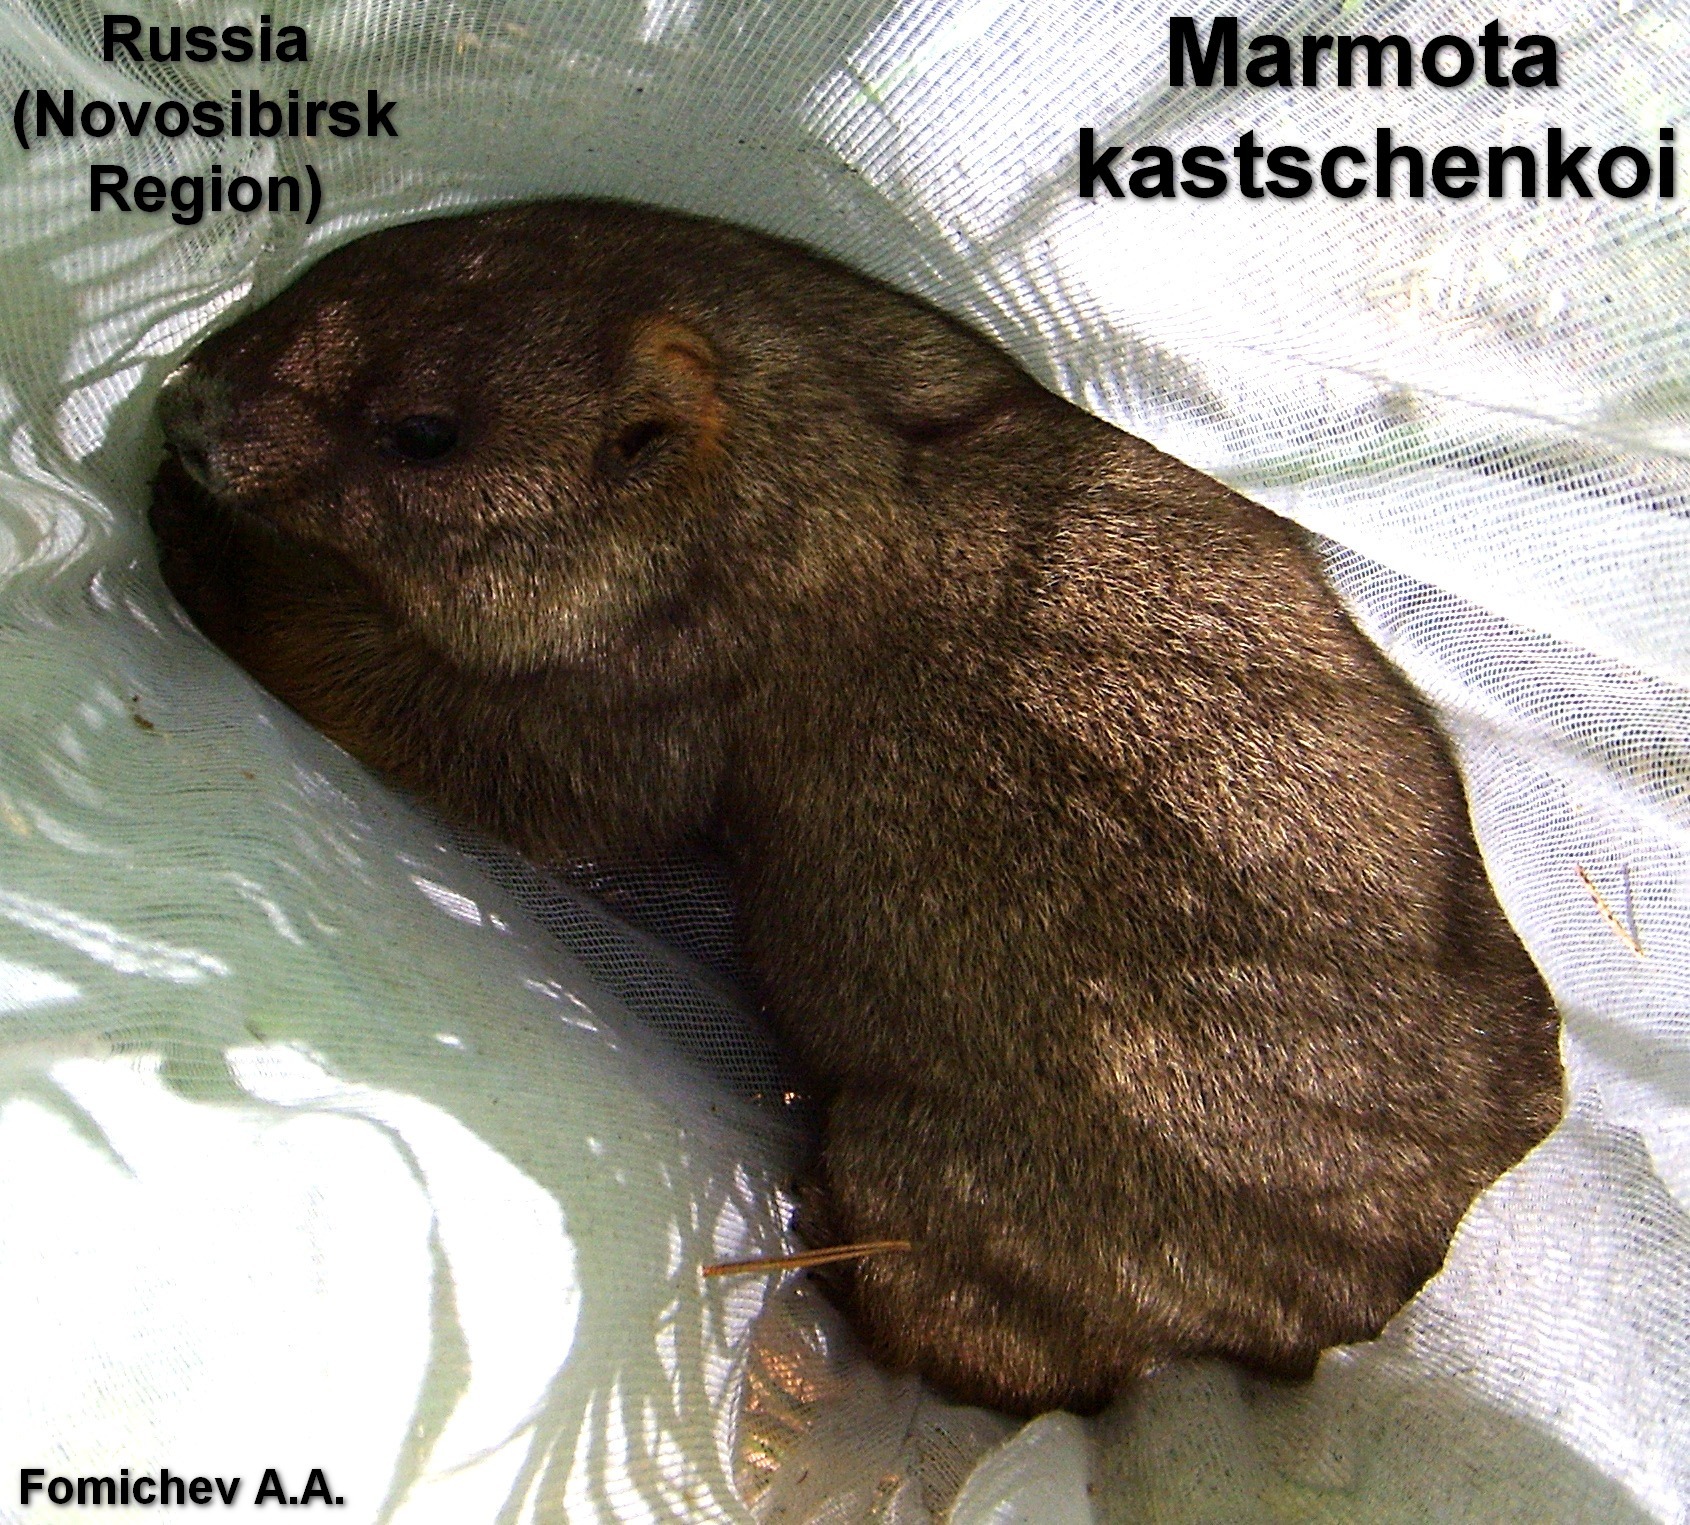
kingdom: Animalia
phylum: Chordata
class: Mammalia
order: Rodentia
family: Sciuridae
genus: Marmota
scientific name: Marmota kastschenkoi
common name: Forest steppe marmot
